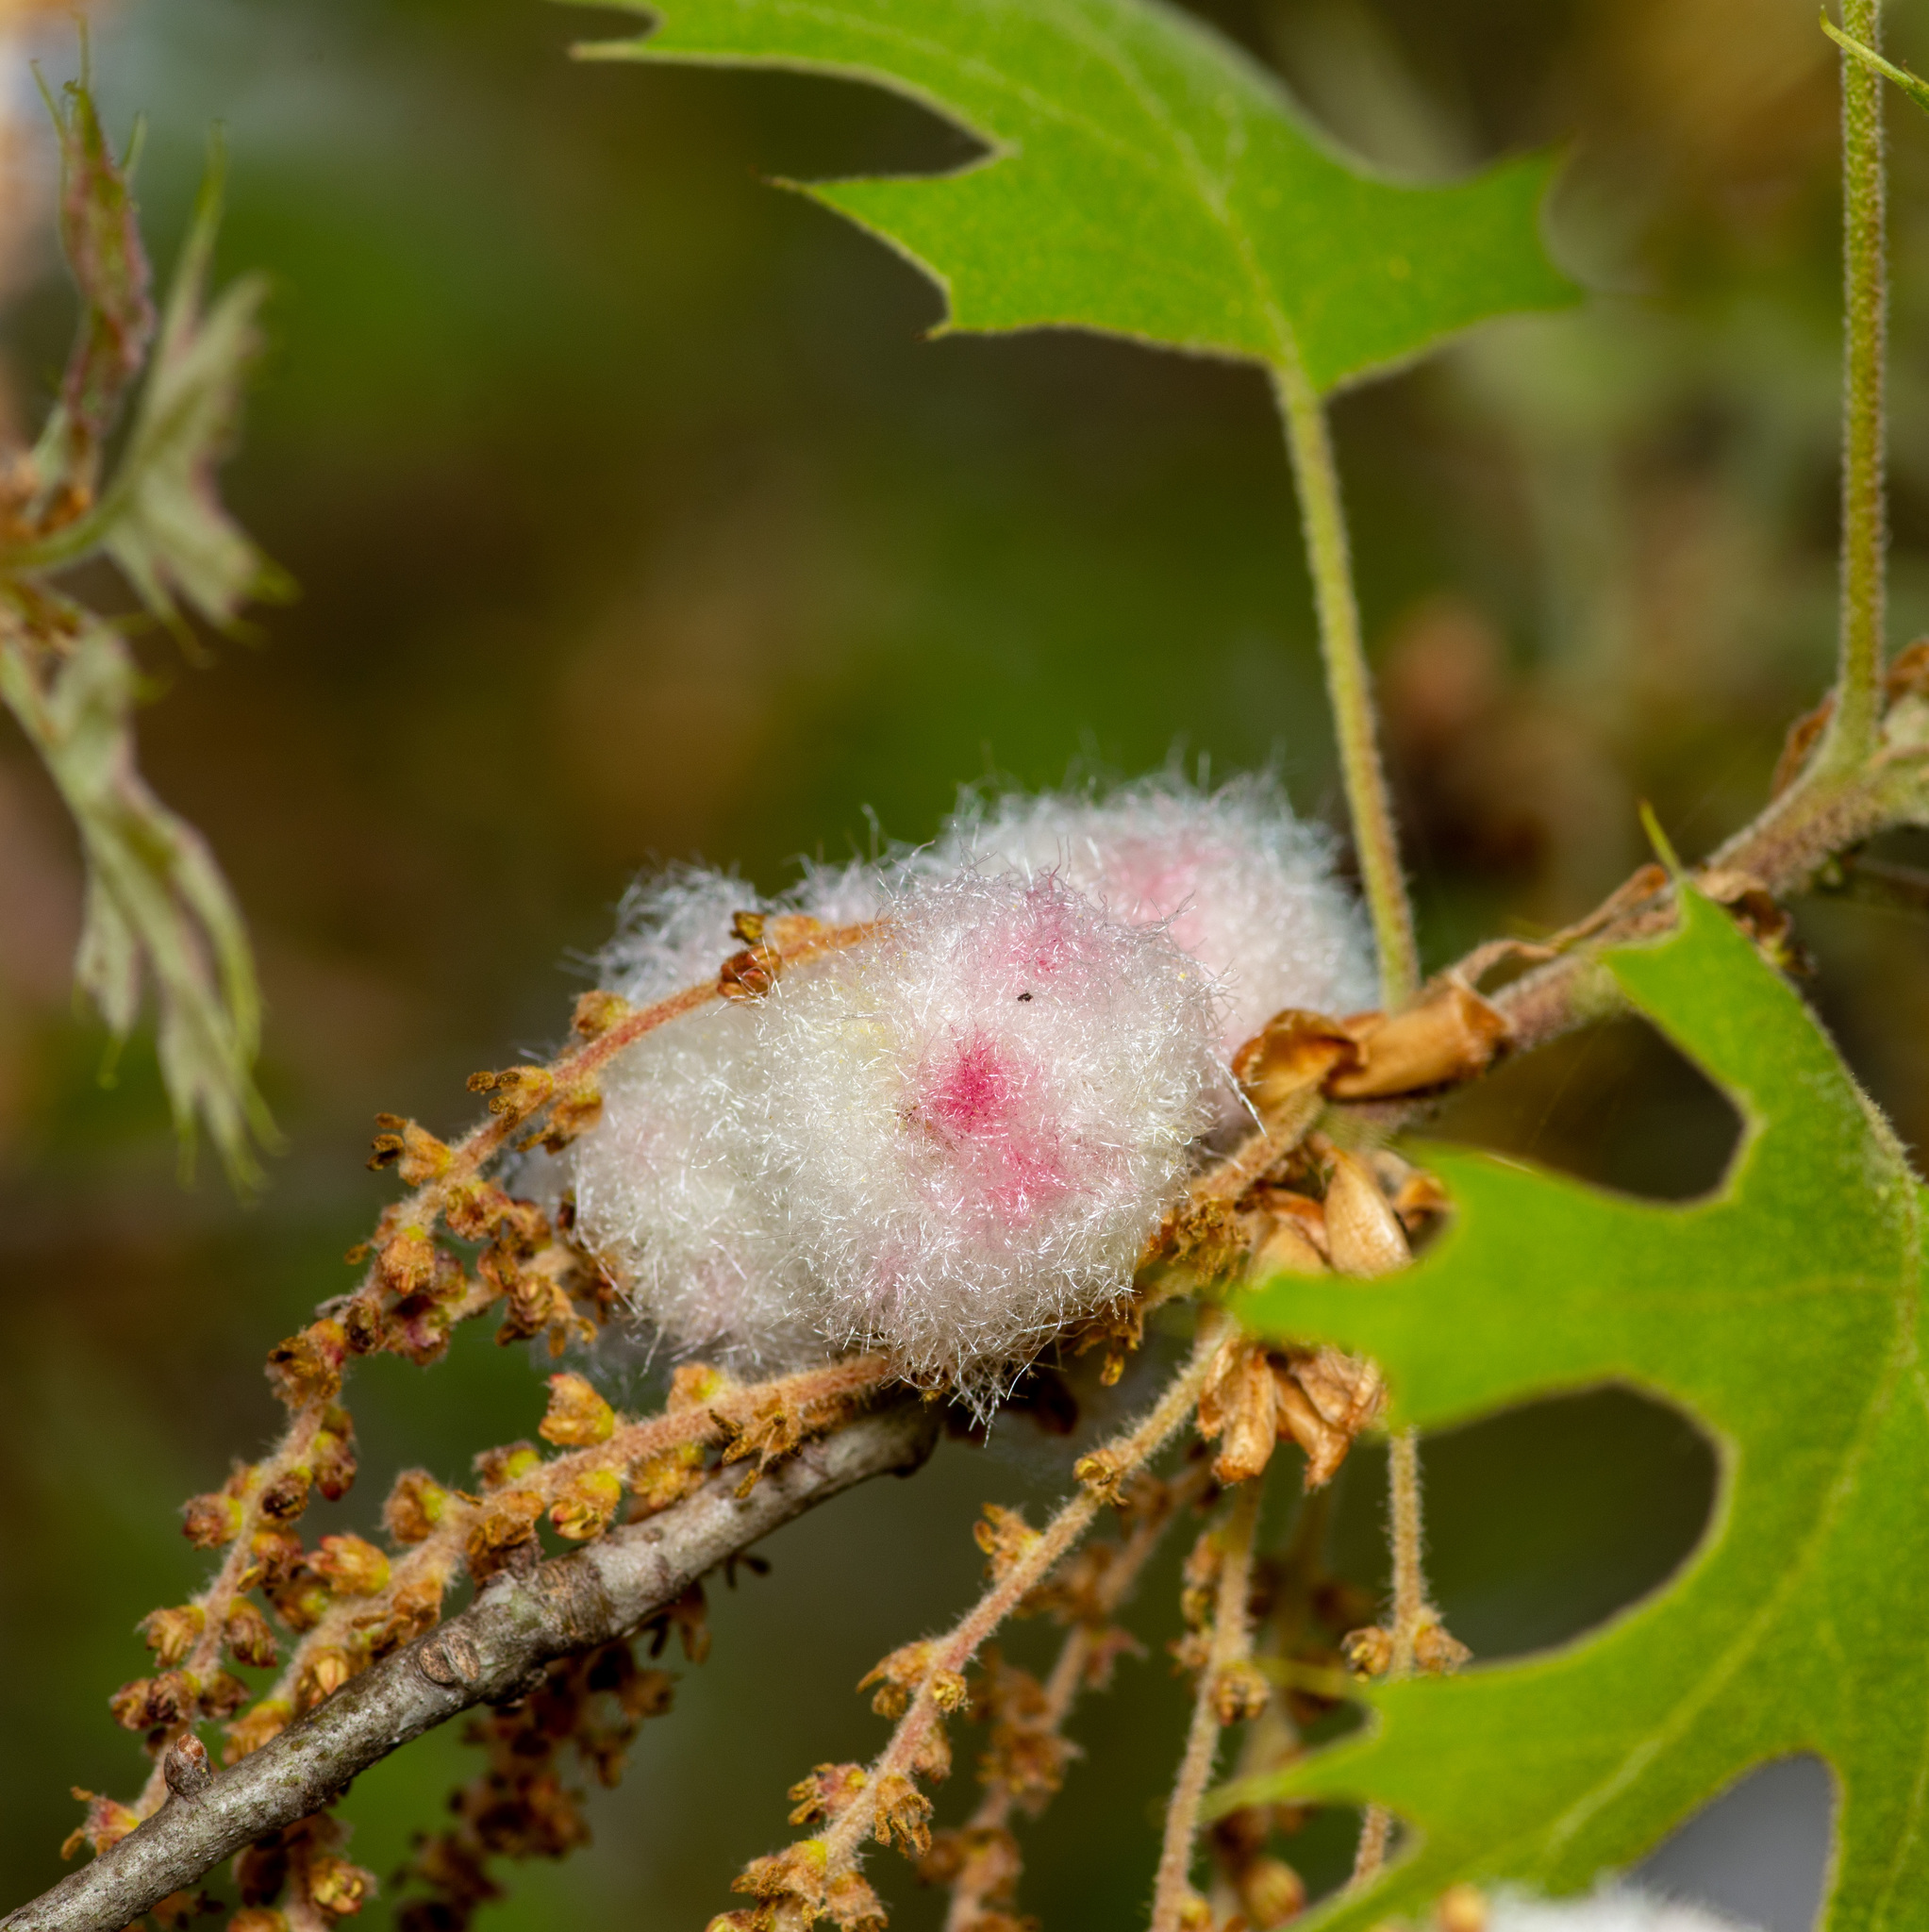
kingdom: Animalia
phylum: Arthropoda
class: Insecta
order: Hymenoptera
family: Cynipidae
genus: Callirhytis
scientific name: Callirhytis
